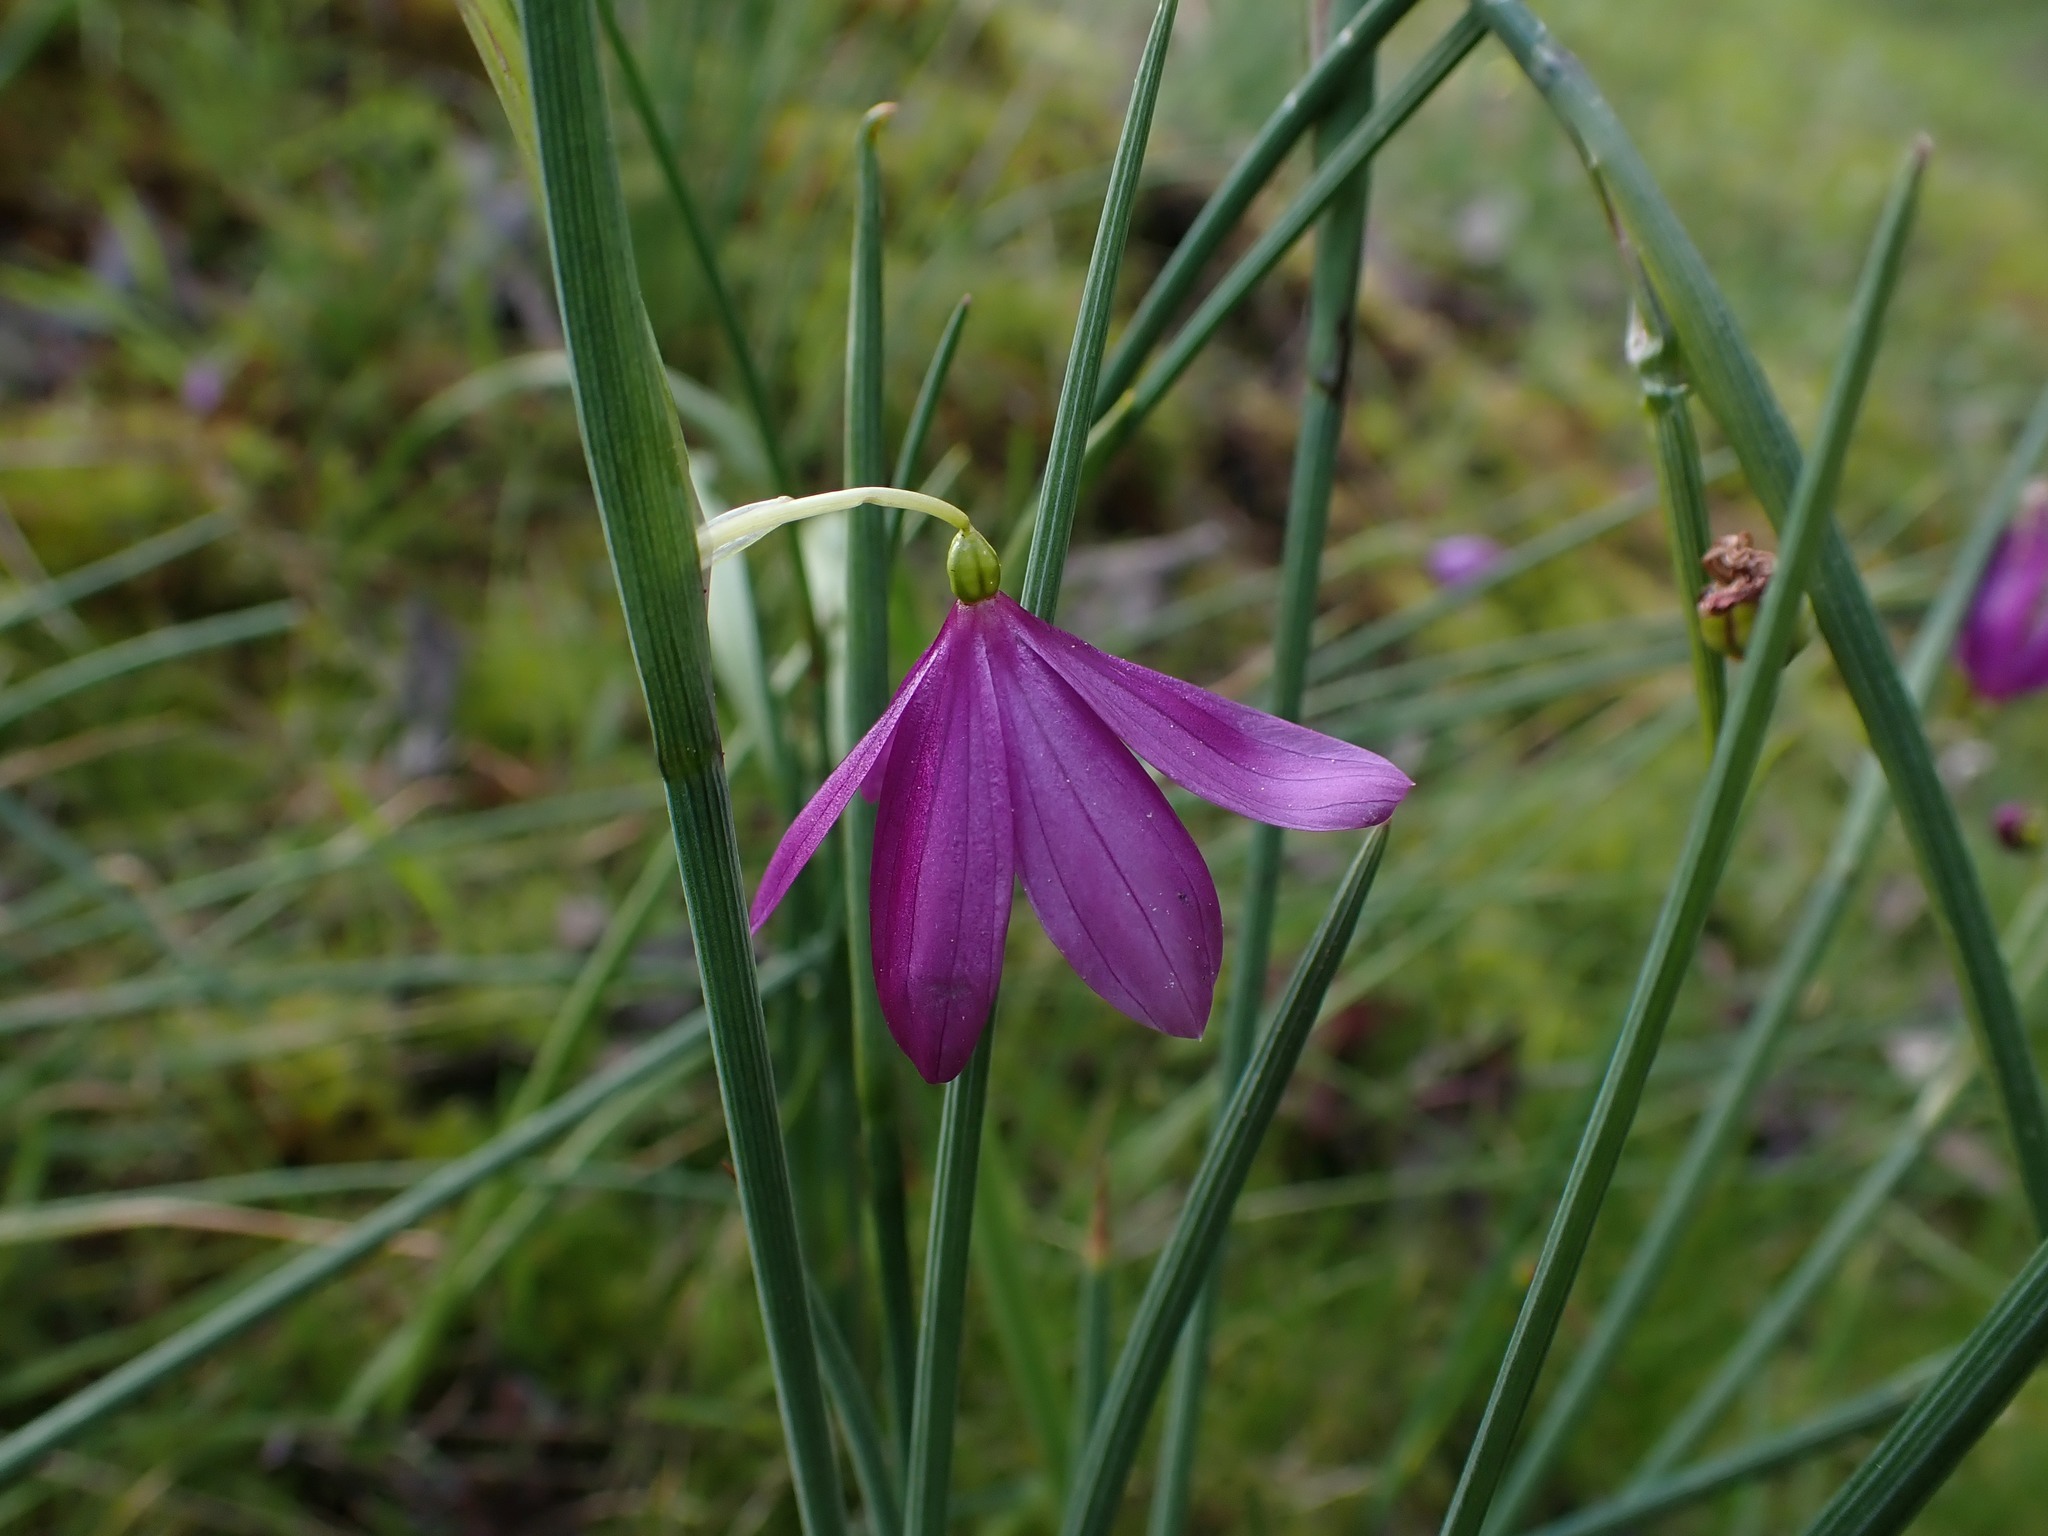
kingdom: Plantae
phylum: Tracheophyta
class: Liliopsida
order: Asparagales
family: Iridaceae
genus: Olsynium
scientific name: Olsynium douglasii
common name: Douglas' grasswidow
